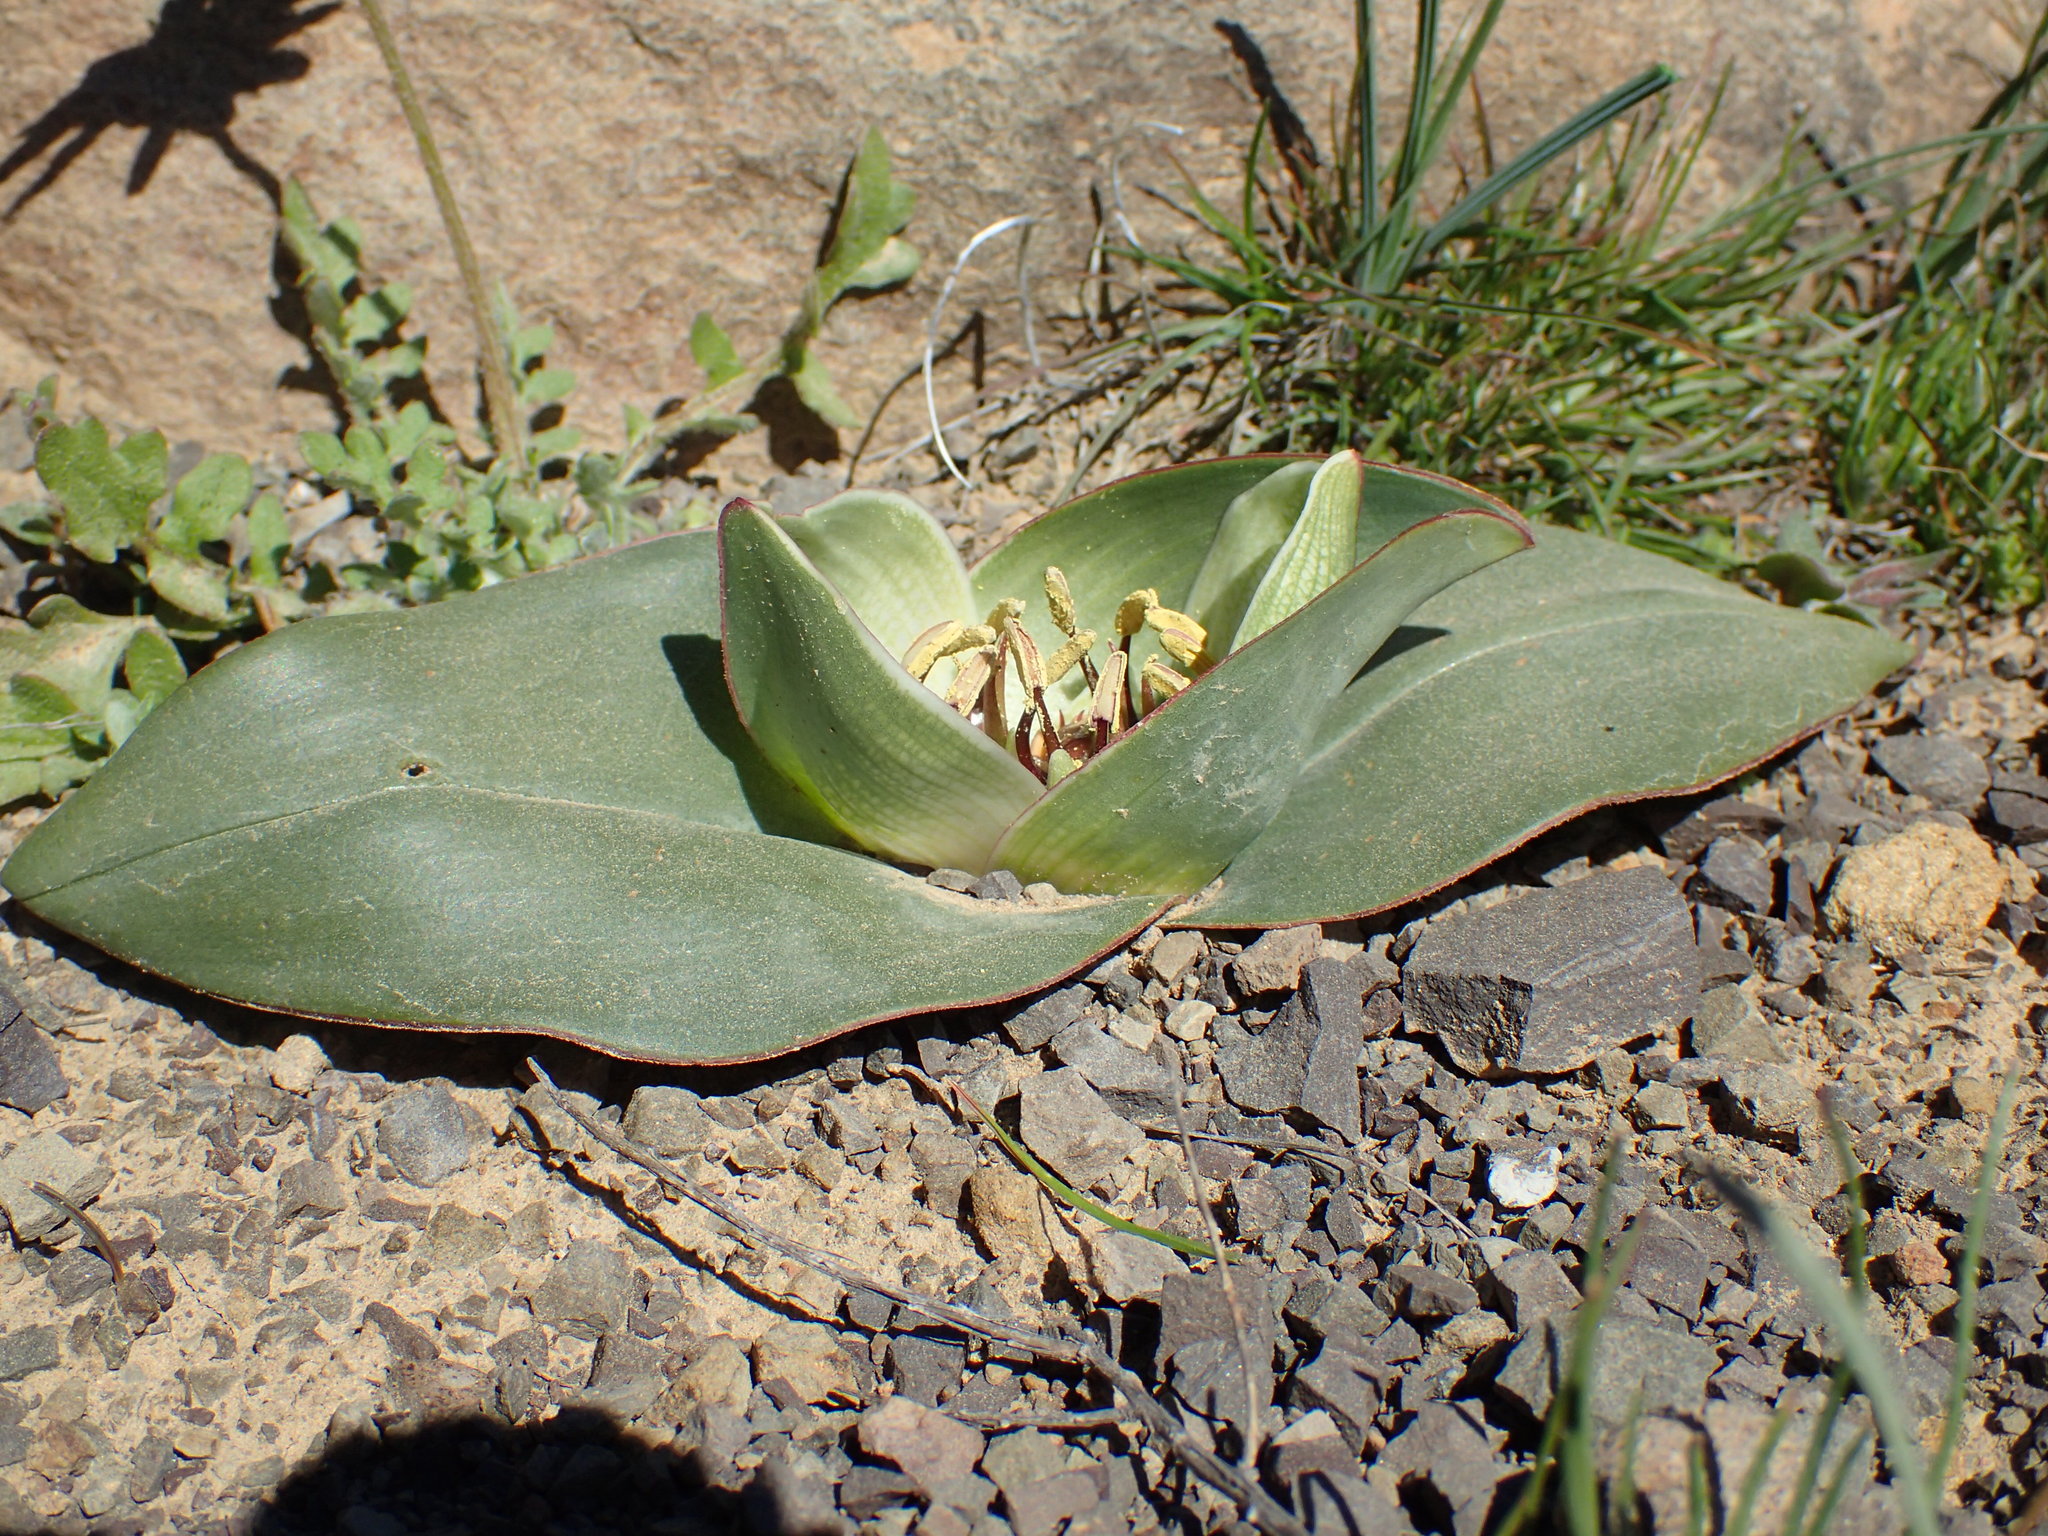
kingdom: Plantae
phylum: Tracheophyta
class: Liliopsida
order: Liliales
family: Colchicaceae
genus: Colchicum
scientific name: Colchicum eucomoides
